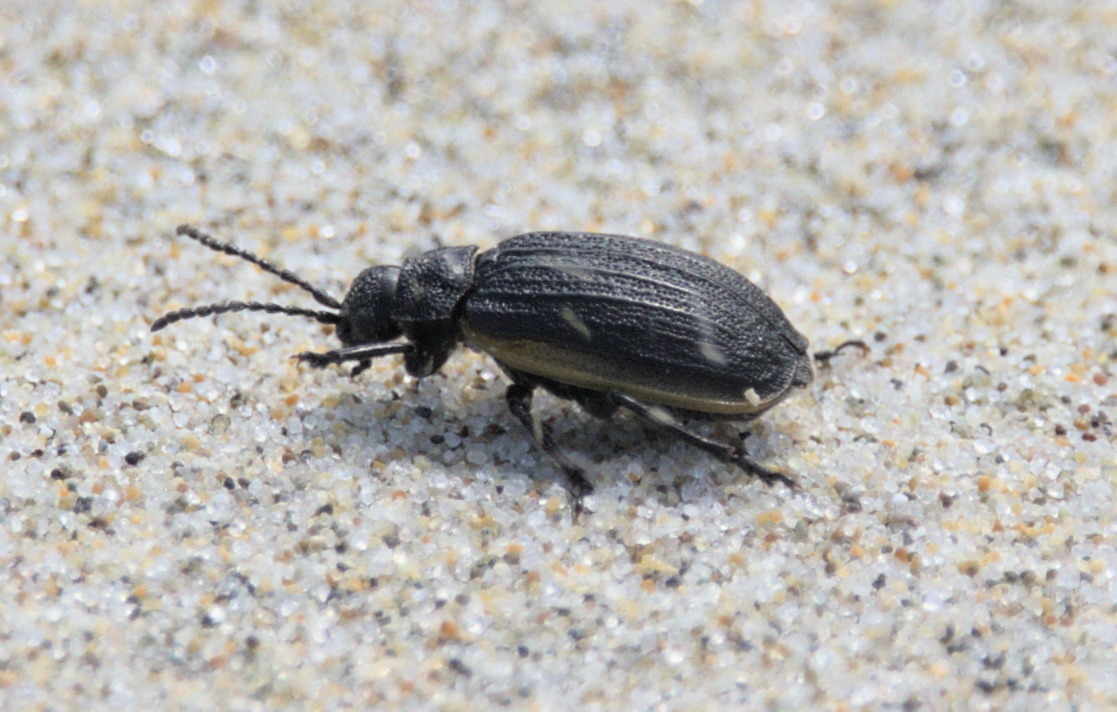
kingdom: Animalia
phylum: Arthropoda
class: Insecta
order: Coleoptera
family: Chrysomelidae
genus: Galeruca
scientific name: Galeruca rudis
